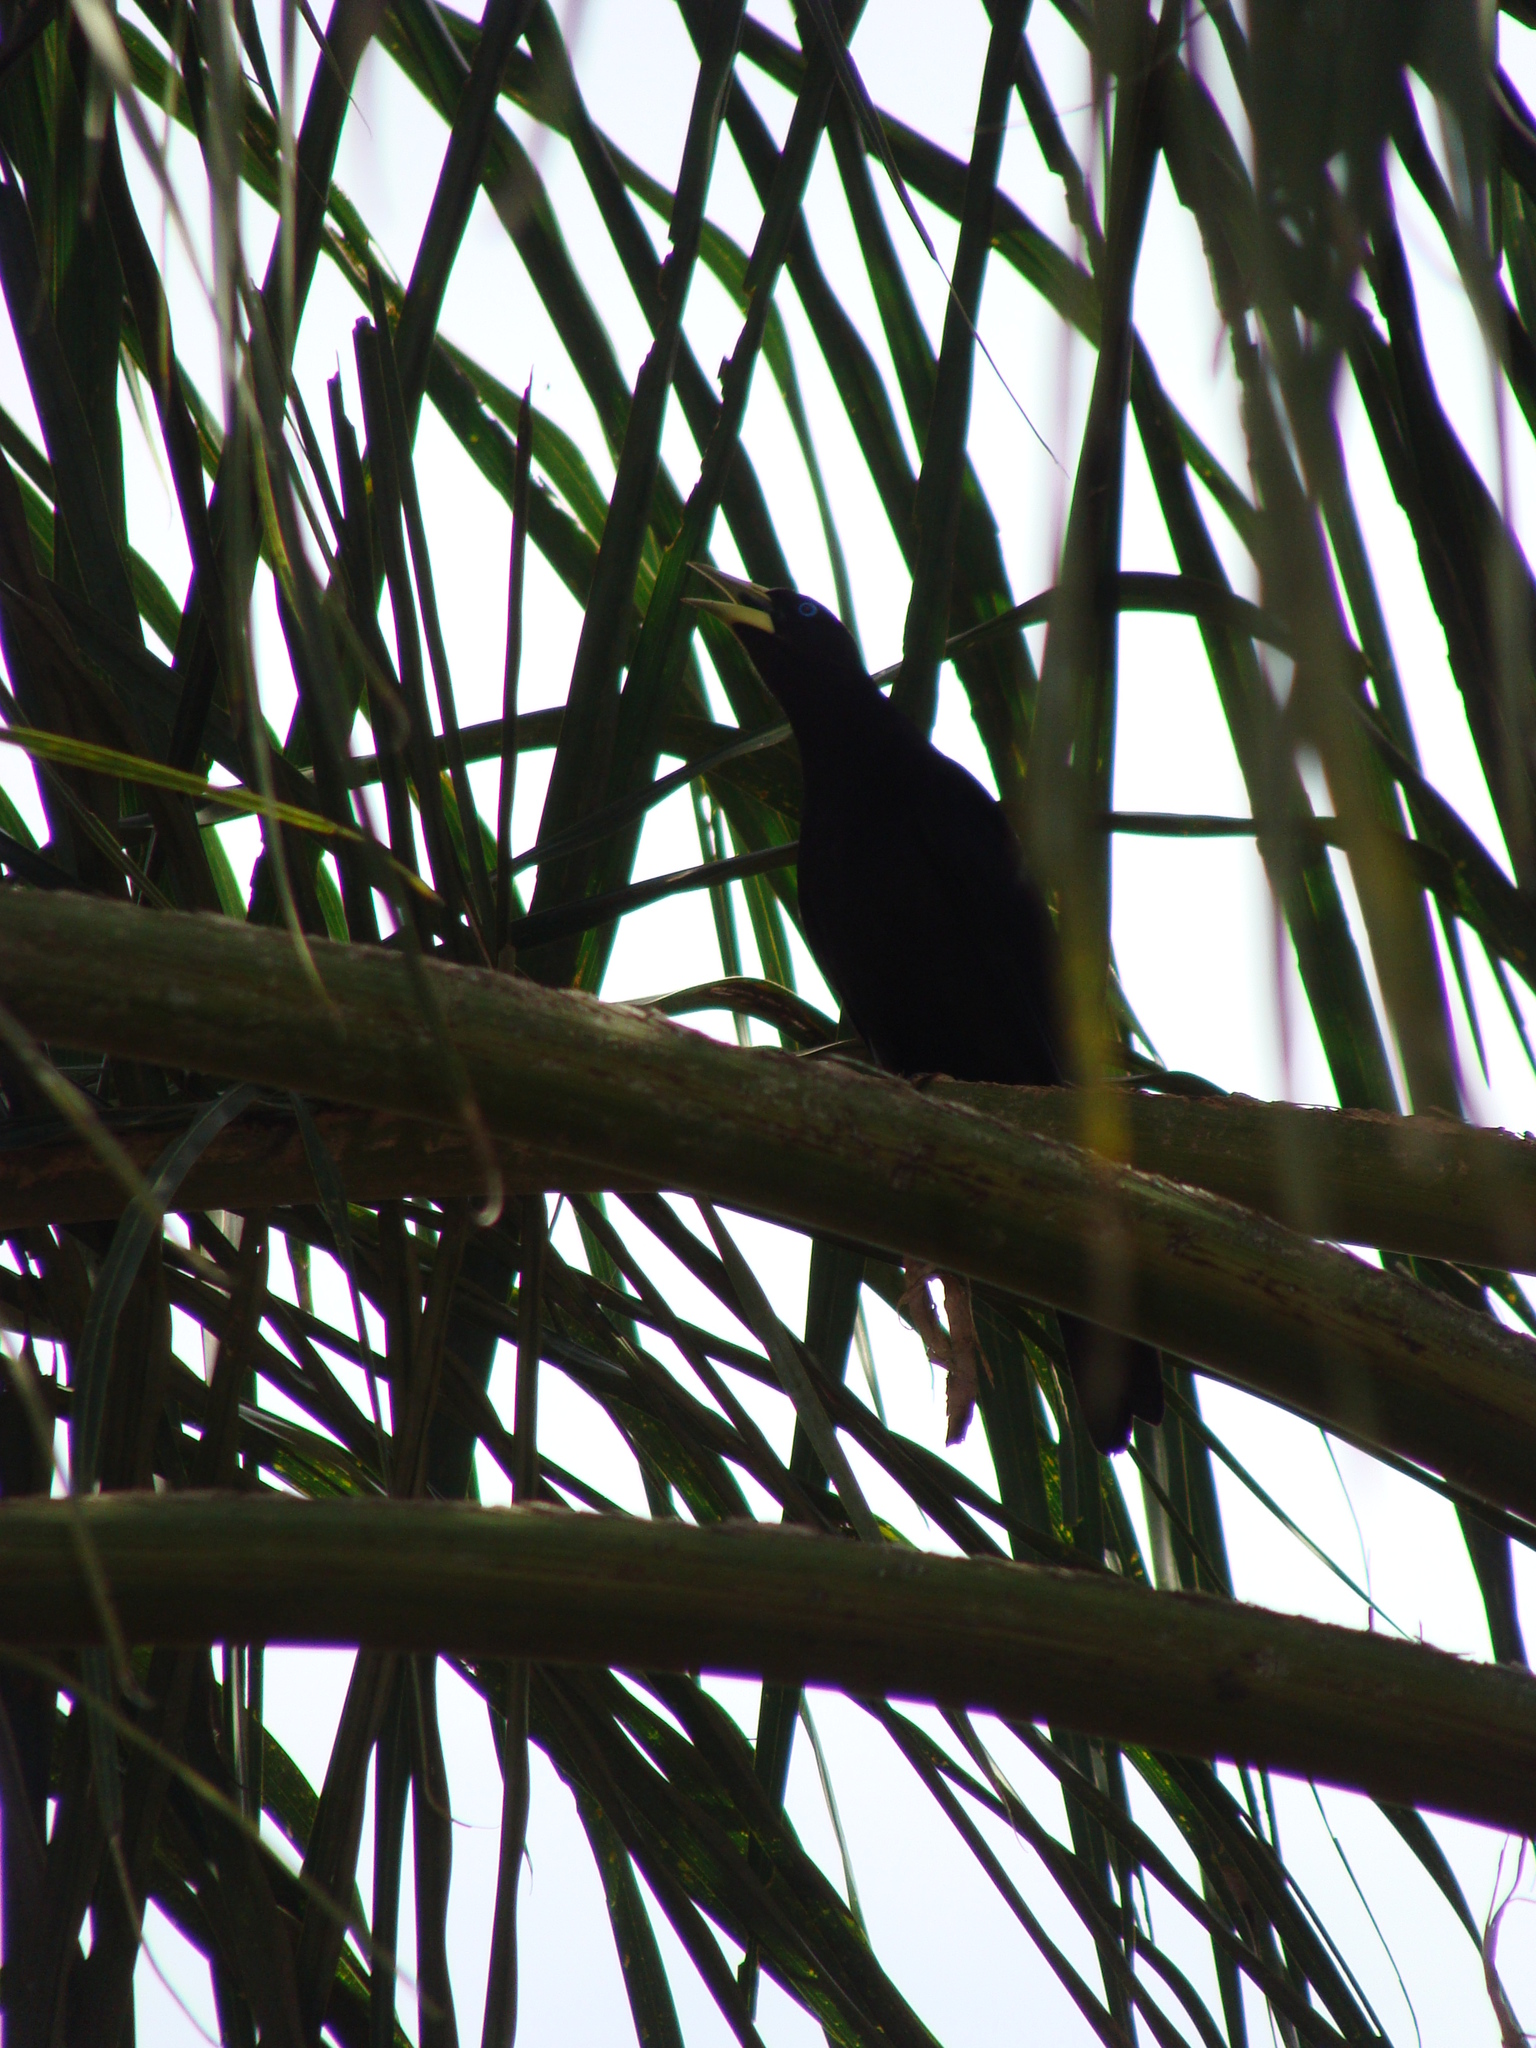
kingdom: Animalia
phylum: Chordata
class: Aves
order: Passeriformes
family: Icteridae
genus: Cacicus
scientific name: Cacicus haemorrhous
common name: Red-rumped cacique
